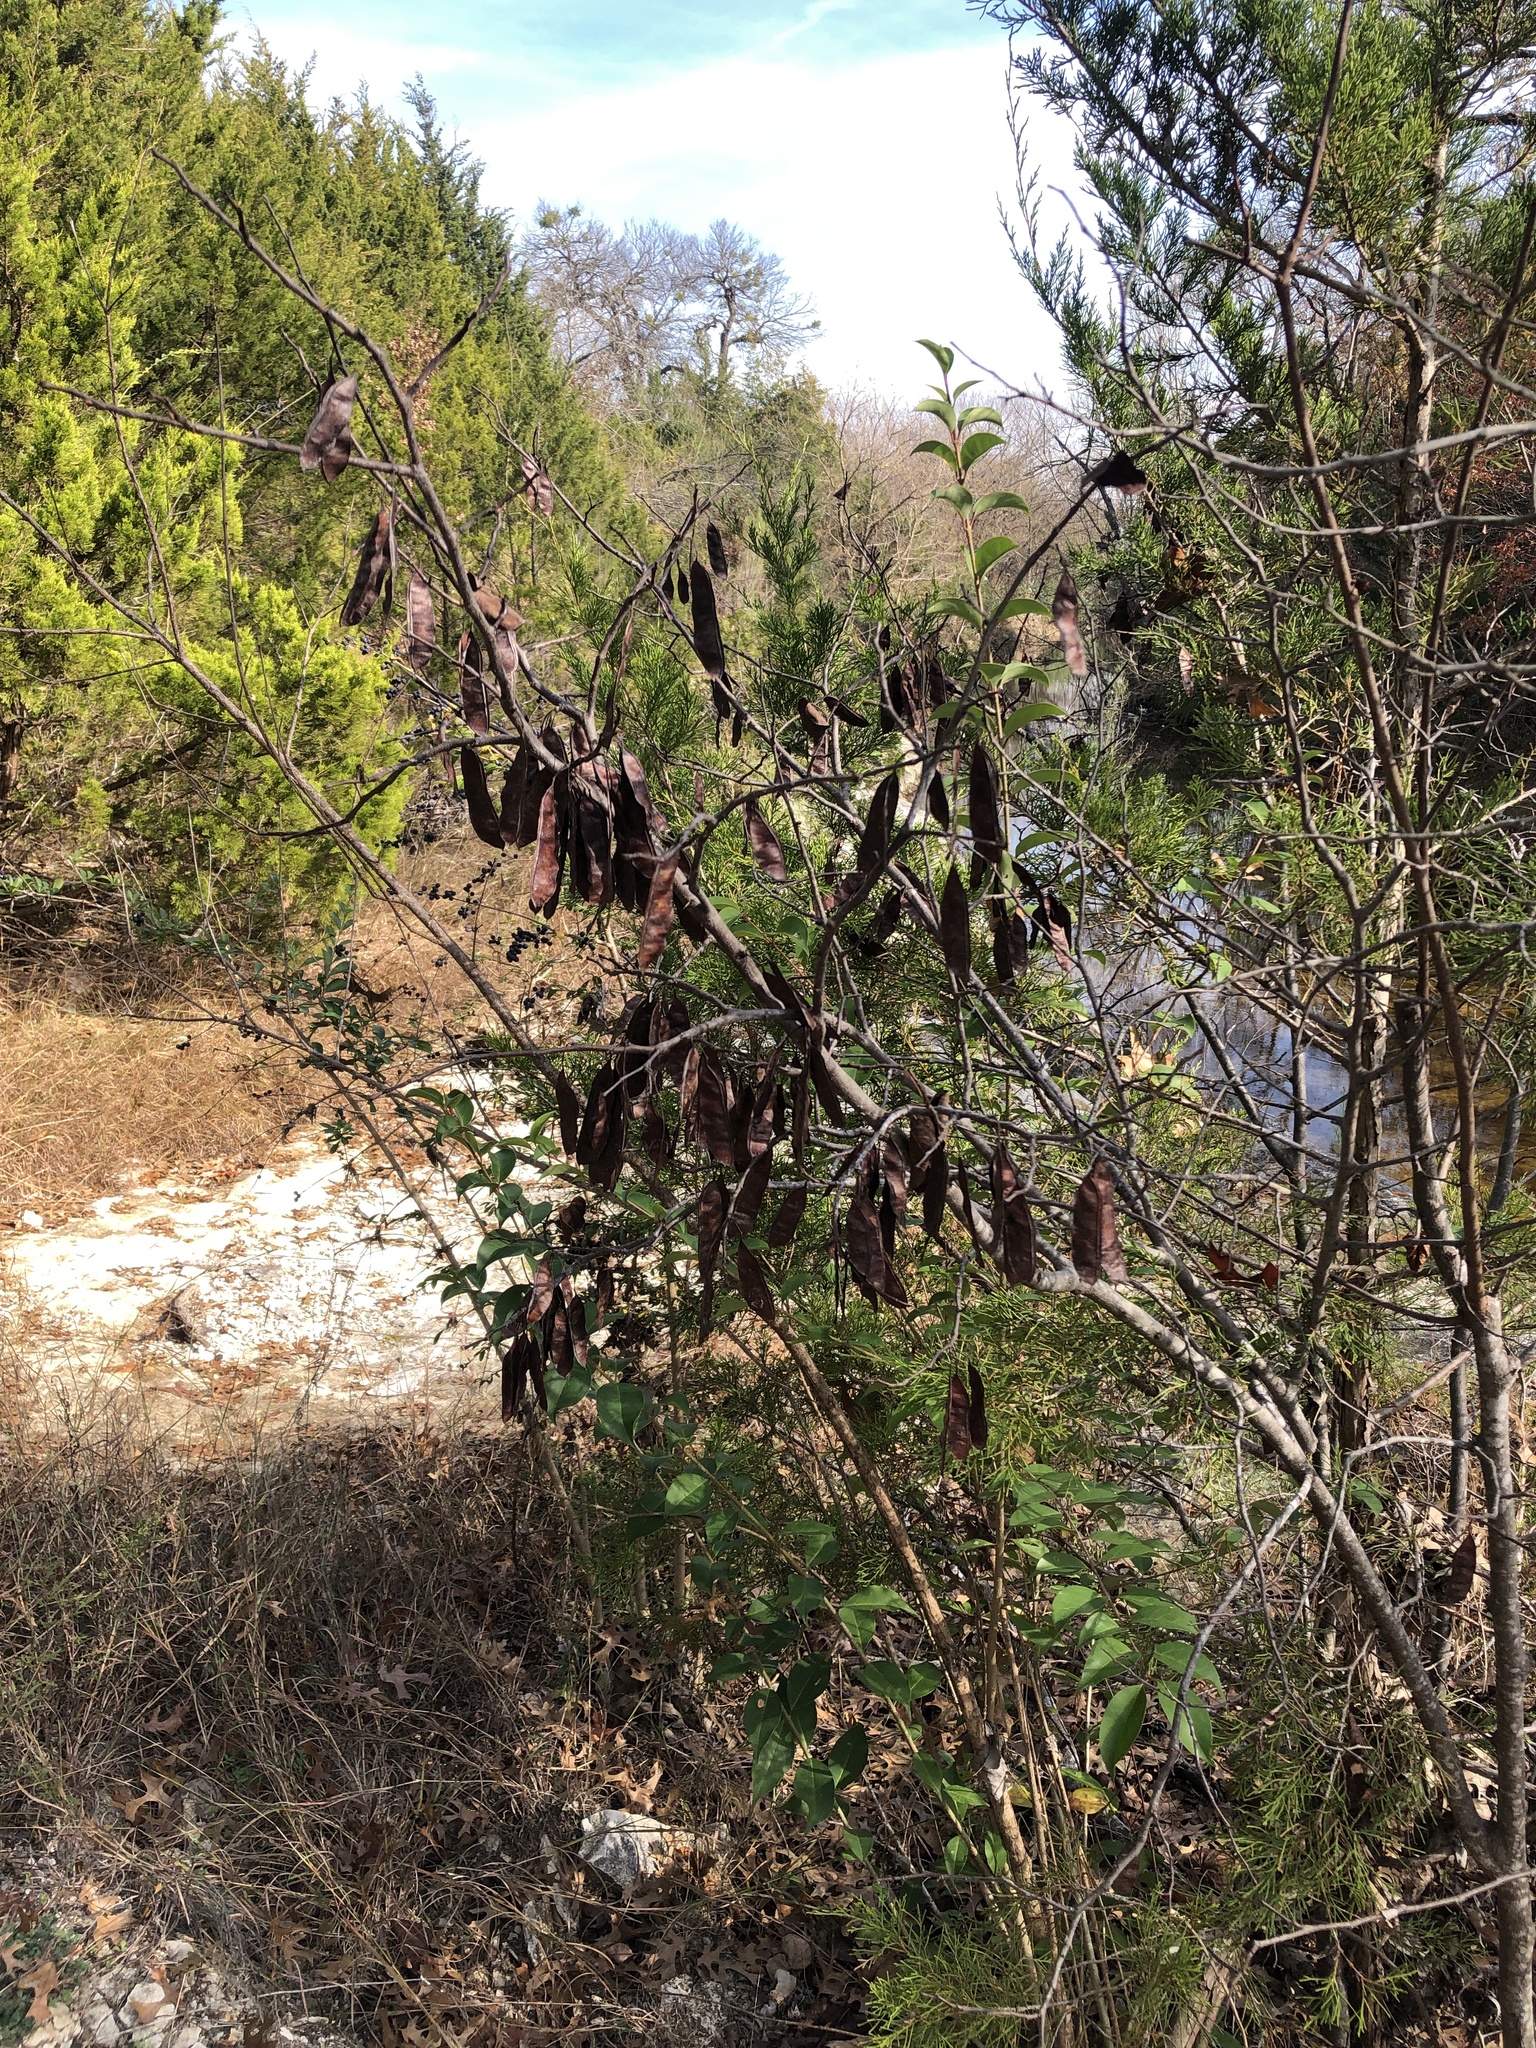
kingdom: Plantae
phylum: Tracheophyta
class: Magnoliopsida
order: Fabales
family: Fabaceae
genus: Cercis
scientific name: Cercis canadensis
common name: Eastern redbud
